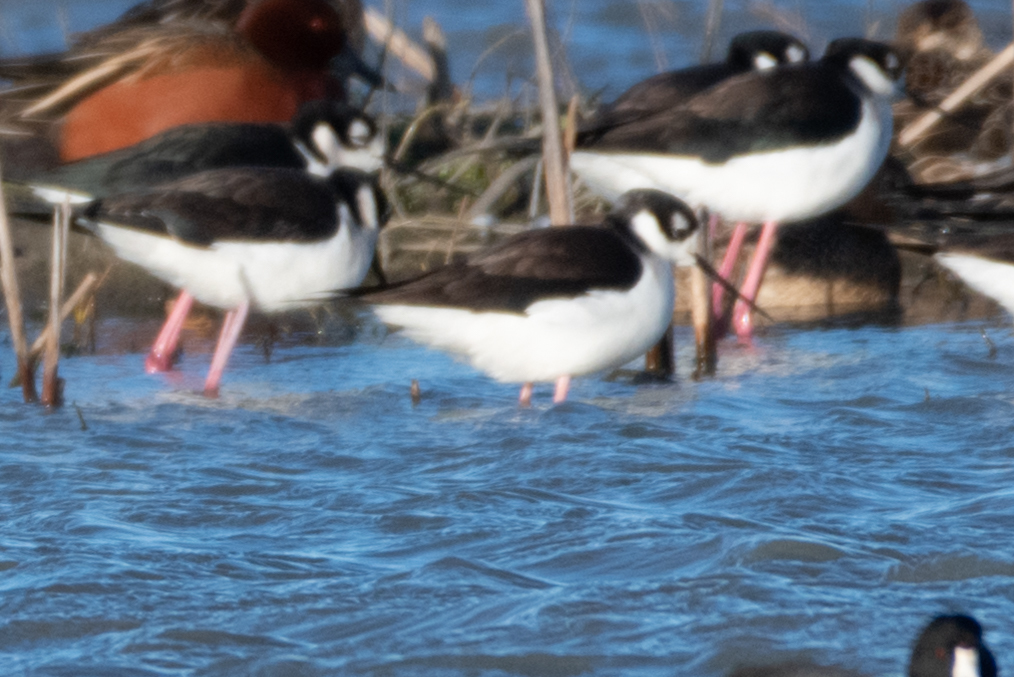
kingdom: Animalia
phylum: Chordata
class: Aves
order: Charadriiformes
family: Recurvirostridae
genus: Himantopus
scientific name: Himantopus mexicanus
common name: Black-necked stilt
